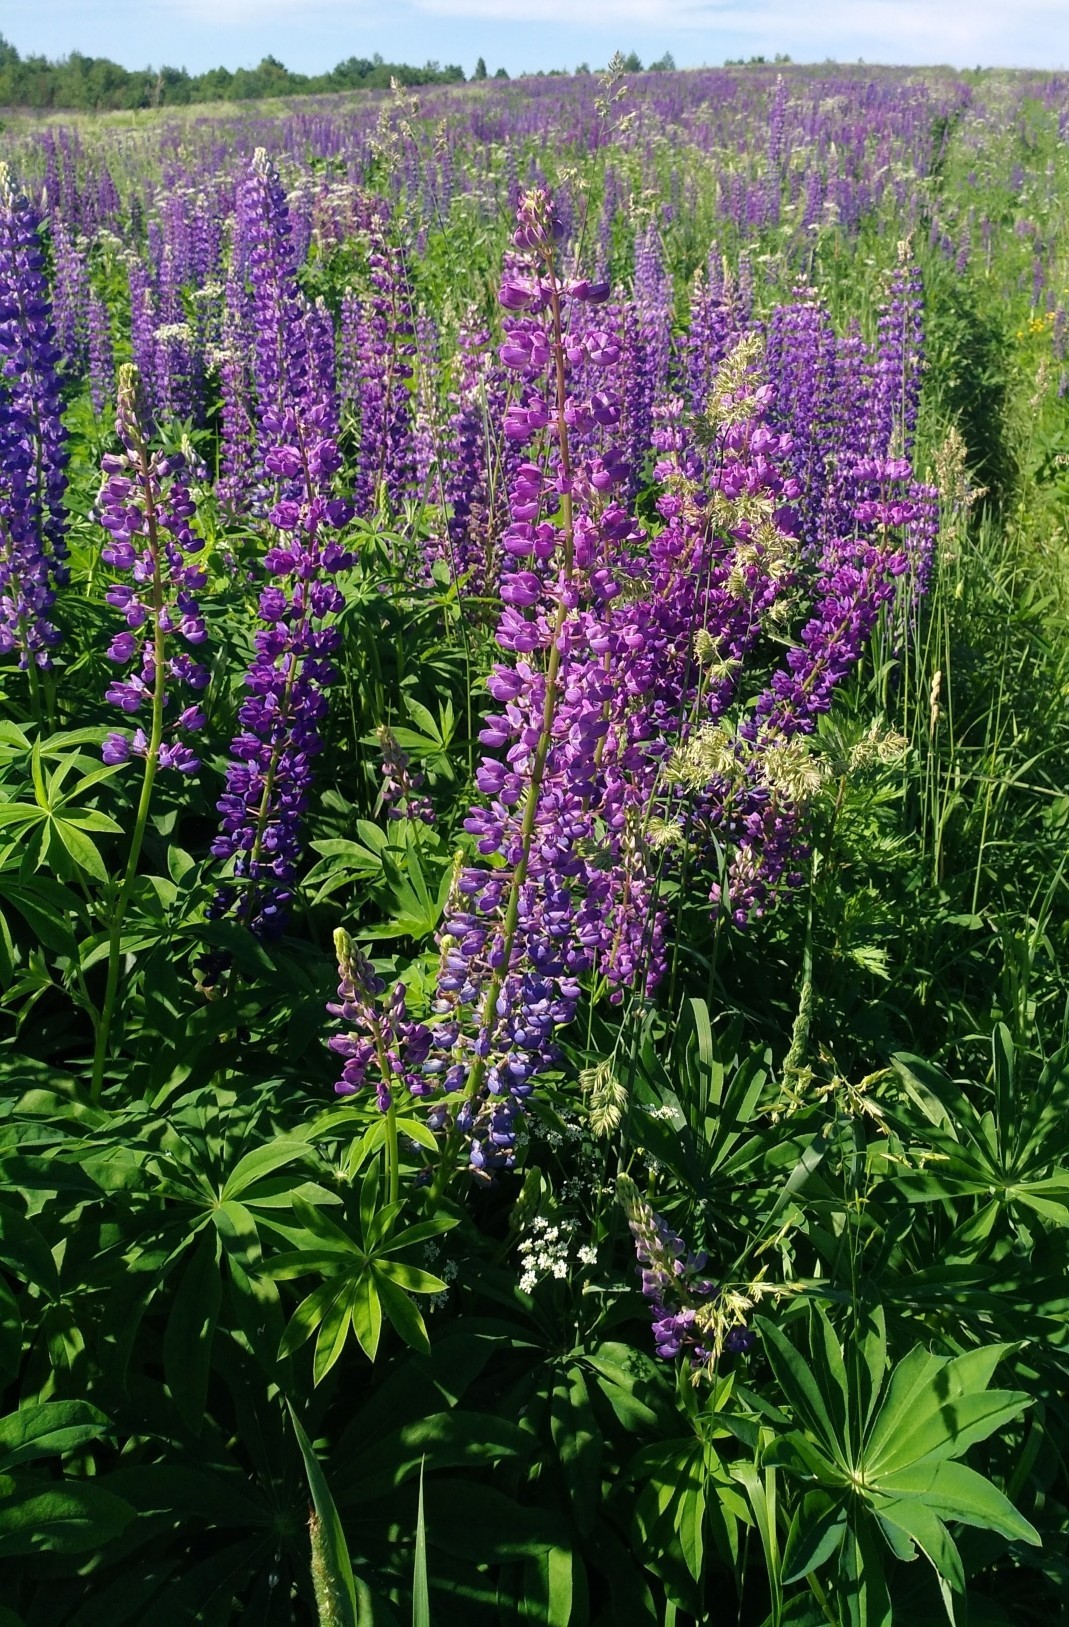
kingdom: Plantae
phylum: Tracheophyta
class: Magnoliopsida
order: Fabales
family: Fabaceae
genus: Lupinus
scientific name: Lupinus polyphyllus
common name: Garden lupin
